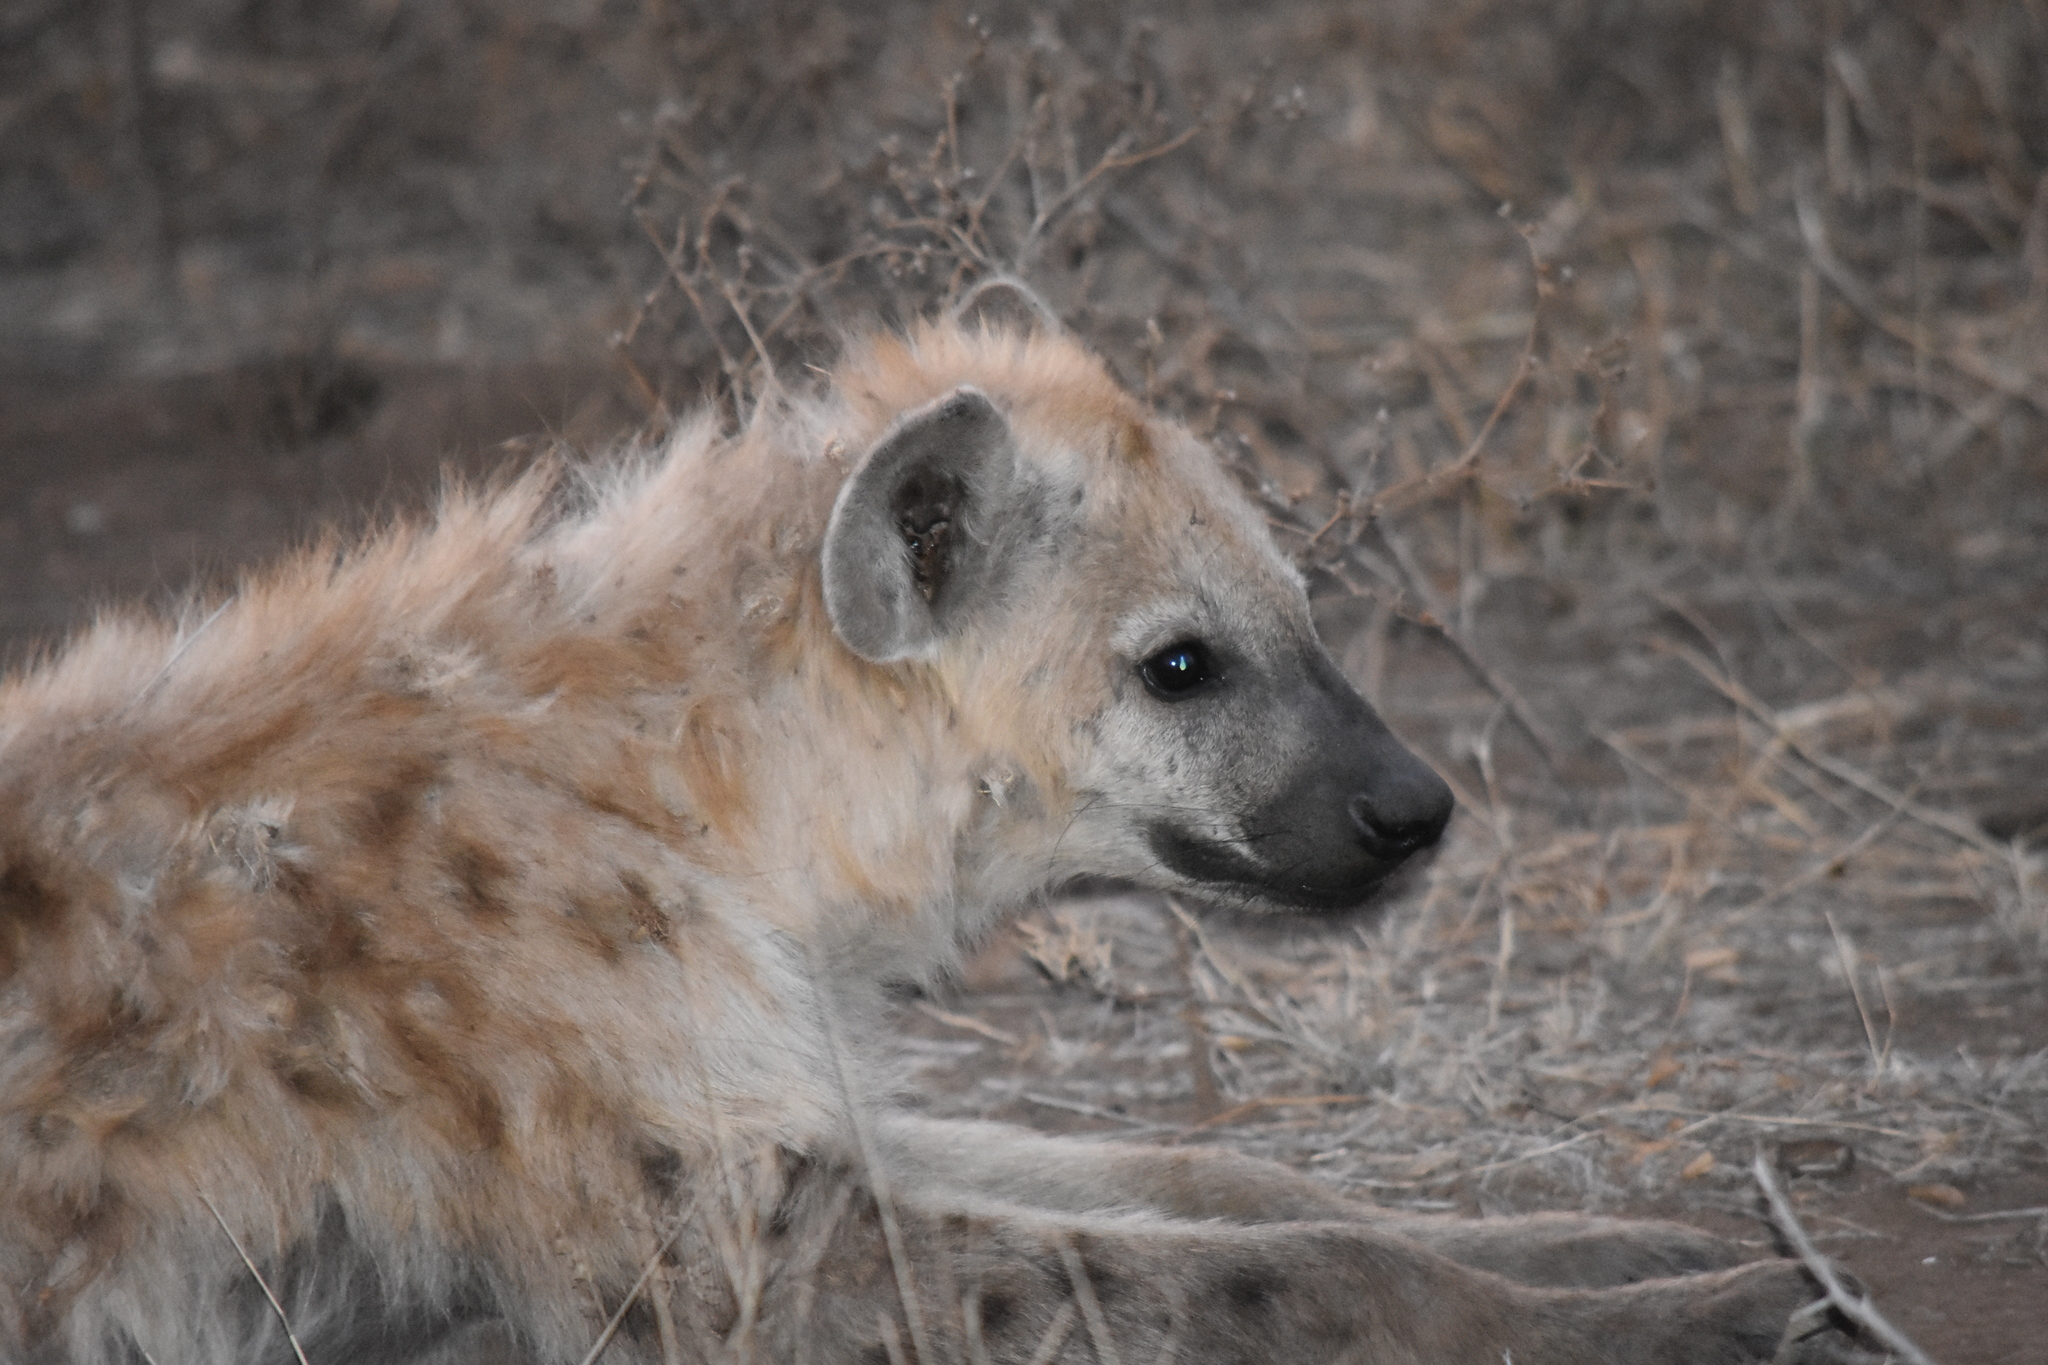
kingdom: Animalia
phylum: Chordata
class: Mammalia
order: Carnivora
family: Hyaenidae
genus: Crocuta
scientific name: Crocuta crocuta
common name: Spotted hyaena
